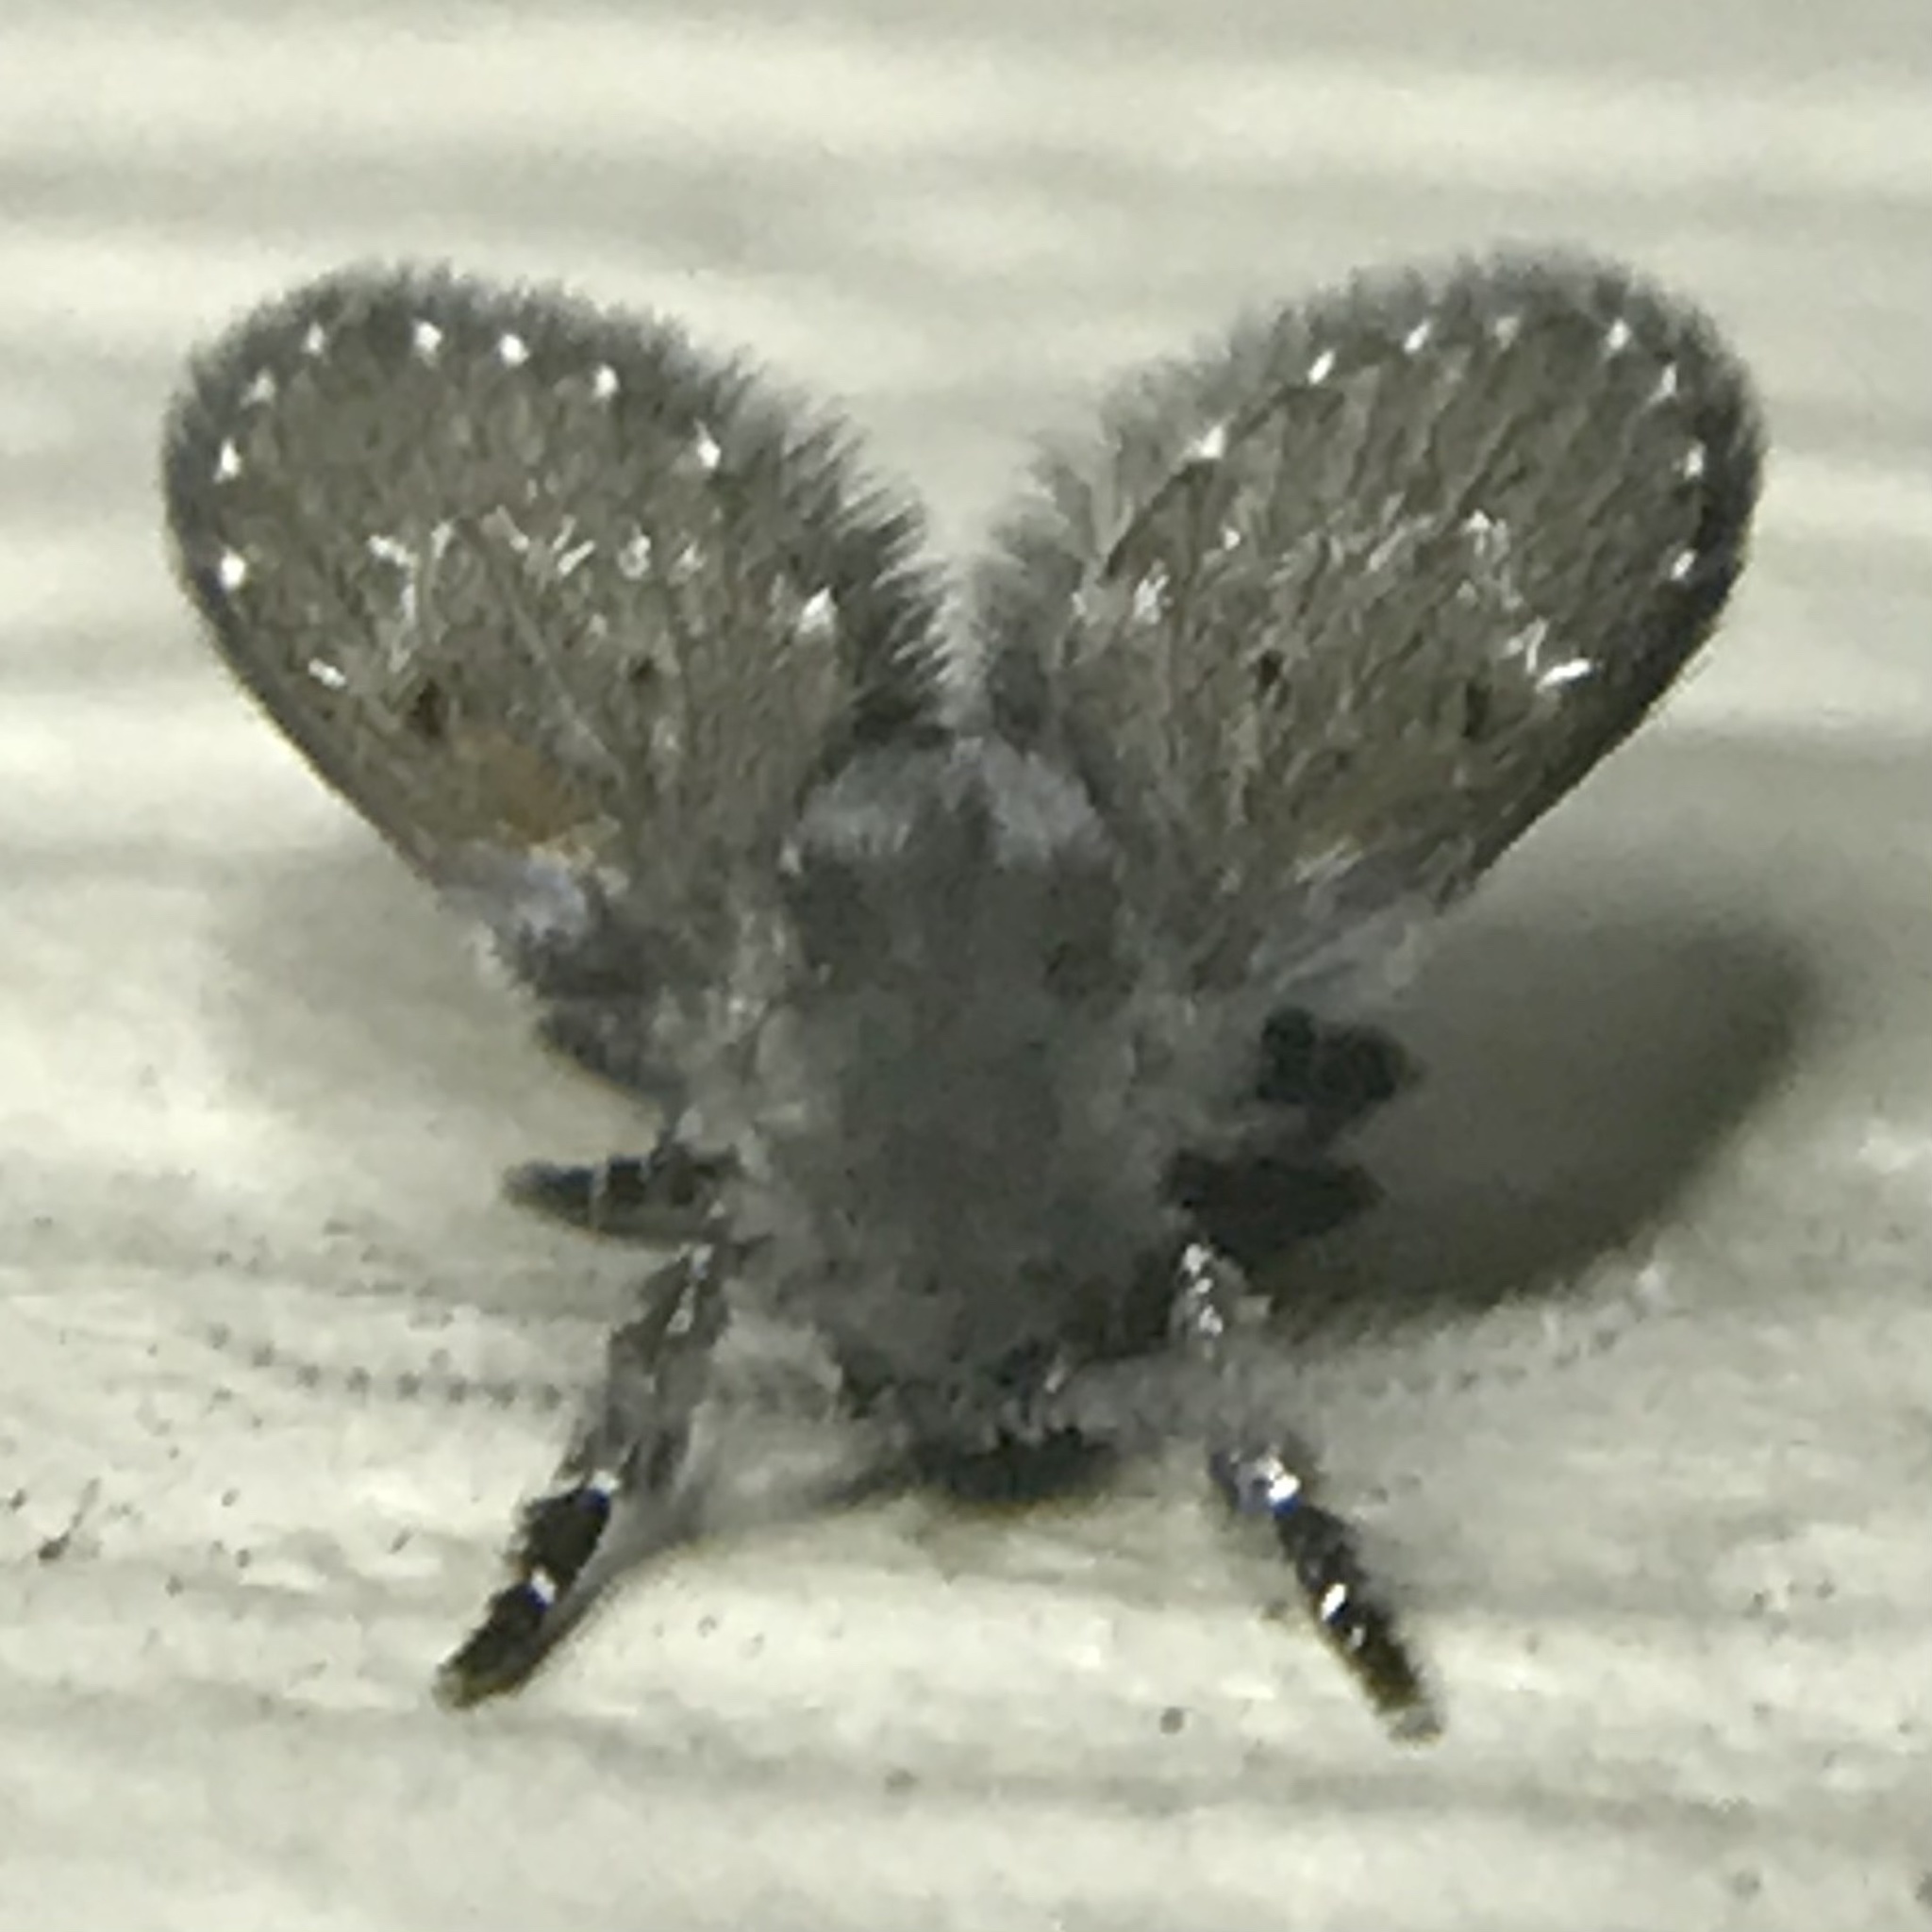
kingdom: Animalia
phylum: Arthropoda
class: Insecta
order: Diptera
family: Psychodidae
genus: Clogmia
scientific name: Clogmia albipunctatus
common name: White-spotted moth fly
